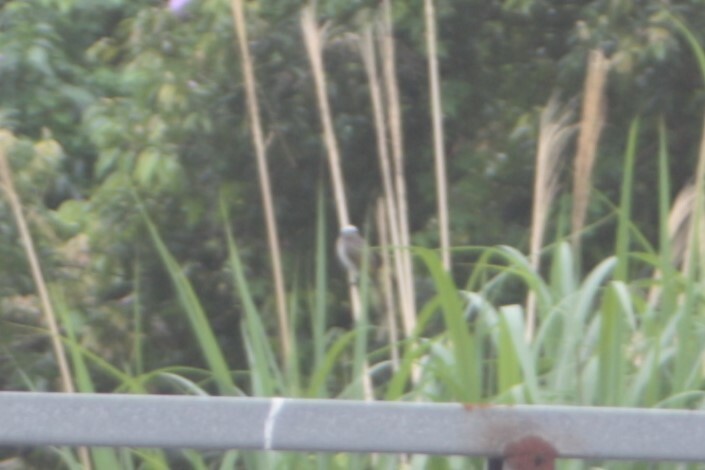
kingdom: Animalia
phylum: Chordata
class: Aves
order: Passeriformes
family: Pycnonotidae
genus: Pycnonotus
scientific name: Pycnonotus sinensis
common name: Light-vented bulbul
